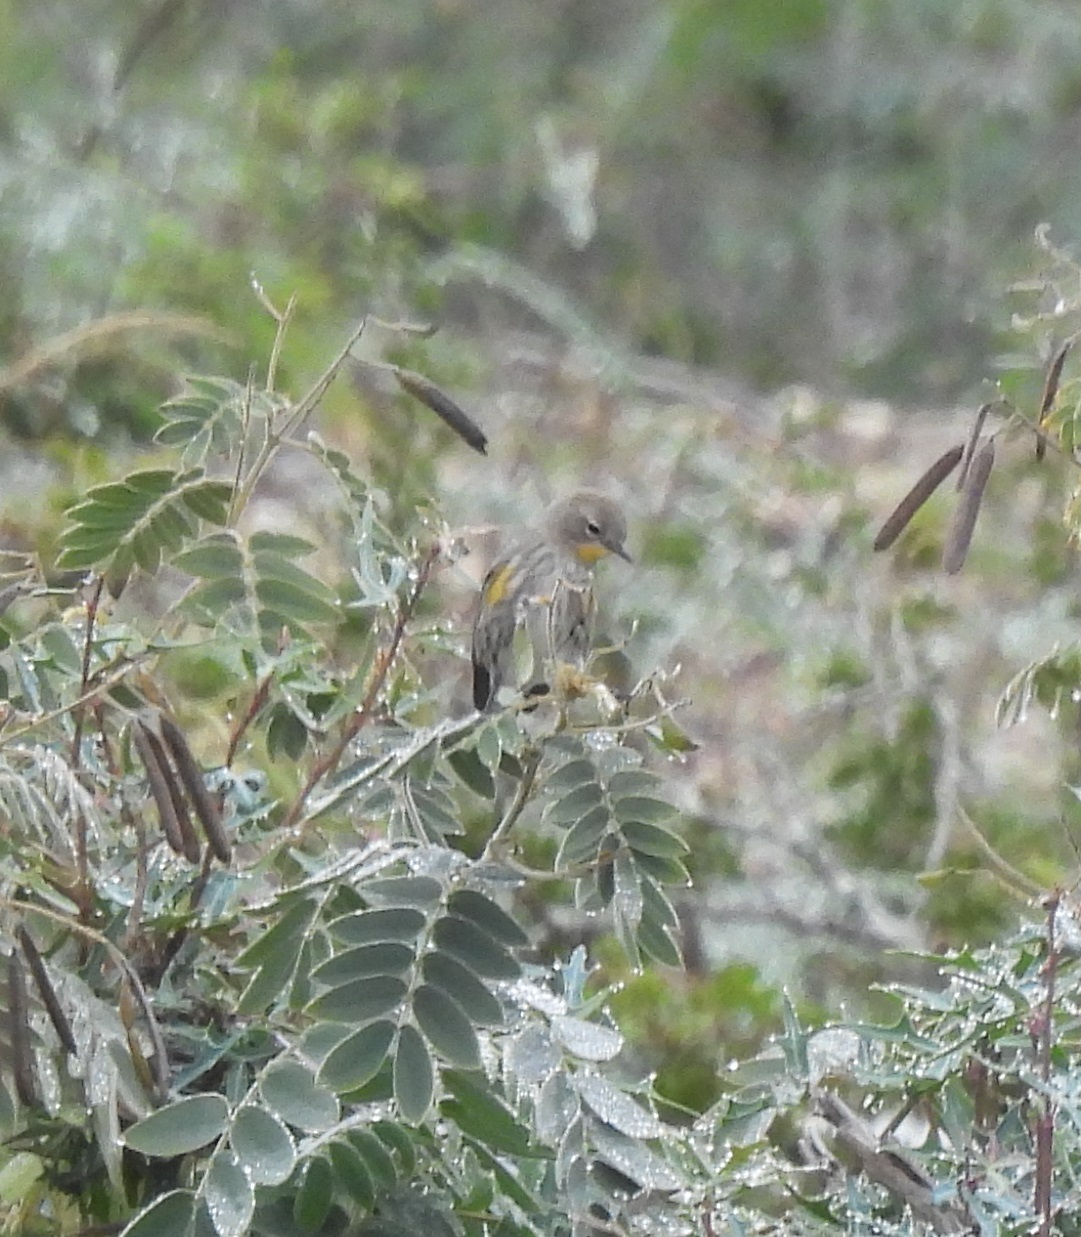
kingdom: Animalia
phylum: Chordata
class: Aves
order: Passeriformes
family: Parulidae
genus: Setophaga
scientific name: Setophaga coronata
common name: Myrtle warbler
